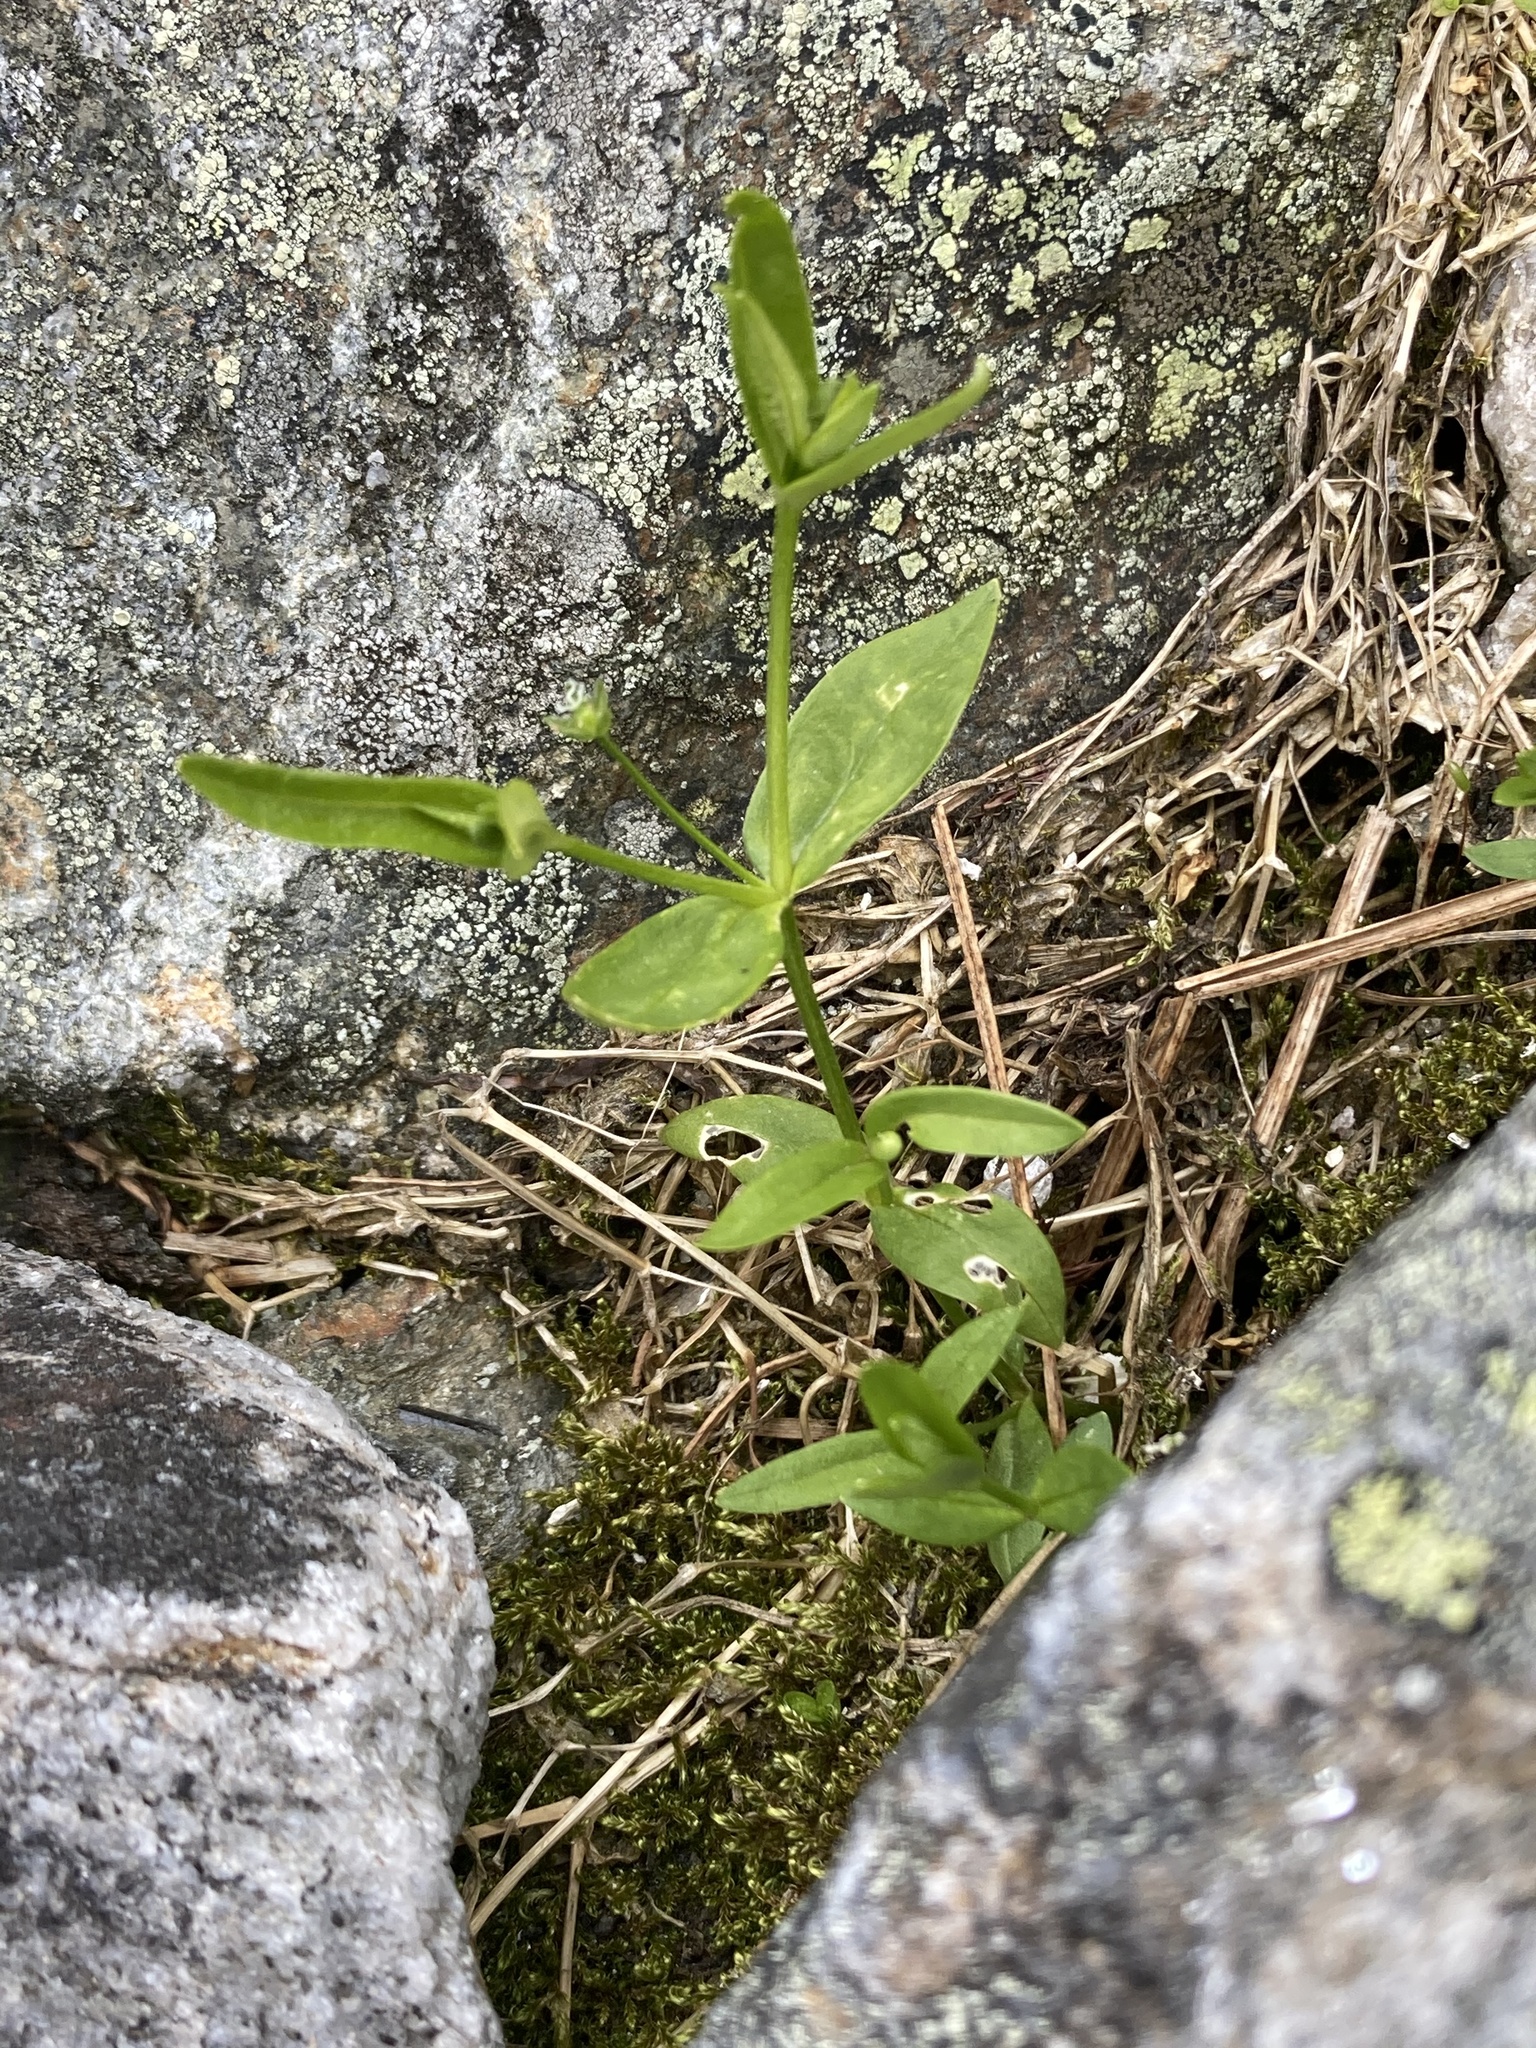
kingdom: Plantae
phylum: Tracheophyta
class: Magnoliopsida
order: Caryophyllales
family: Caryophyllaceae
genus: Stellaria
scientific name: Stellaria borealis
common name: Boreal starwort
